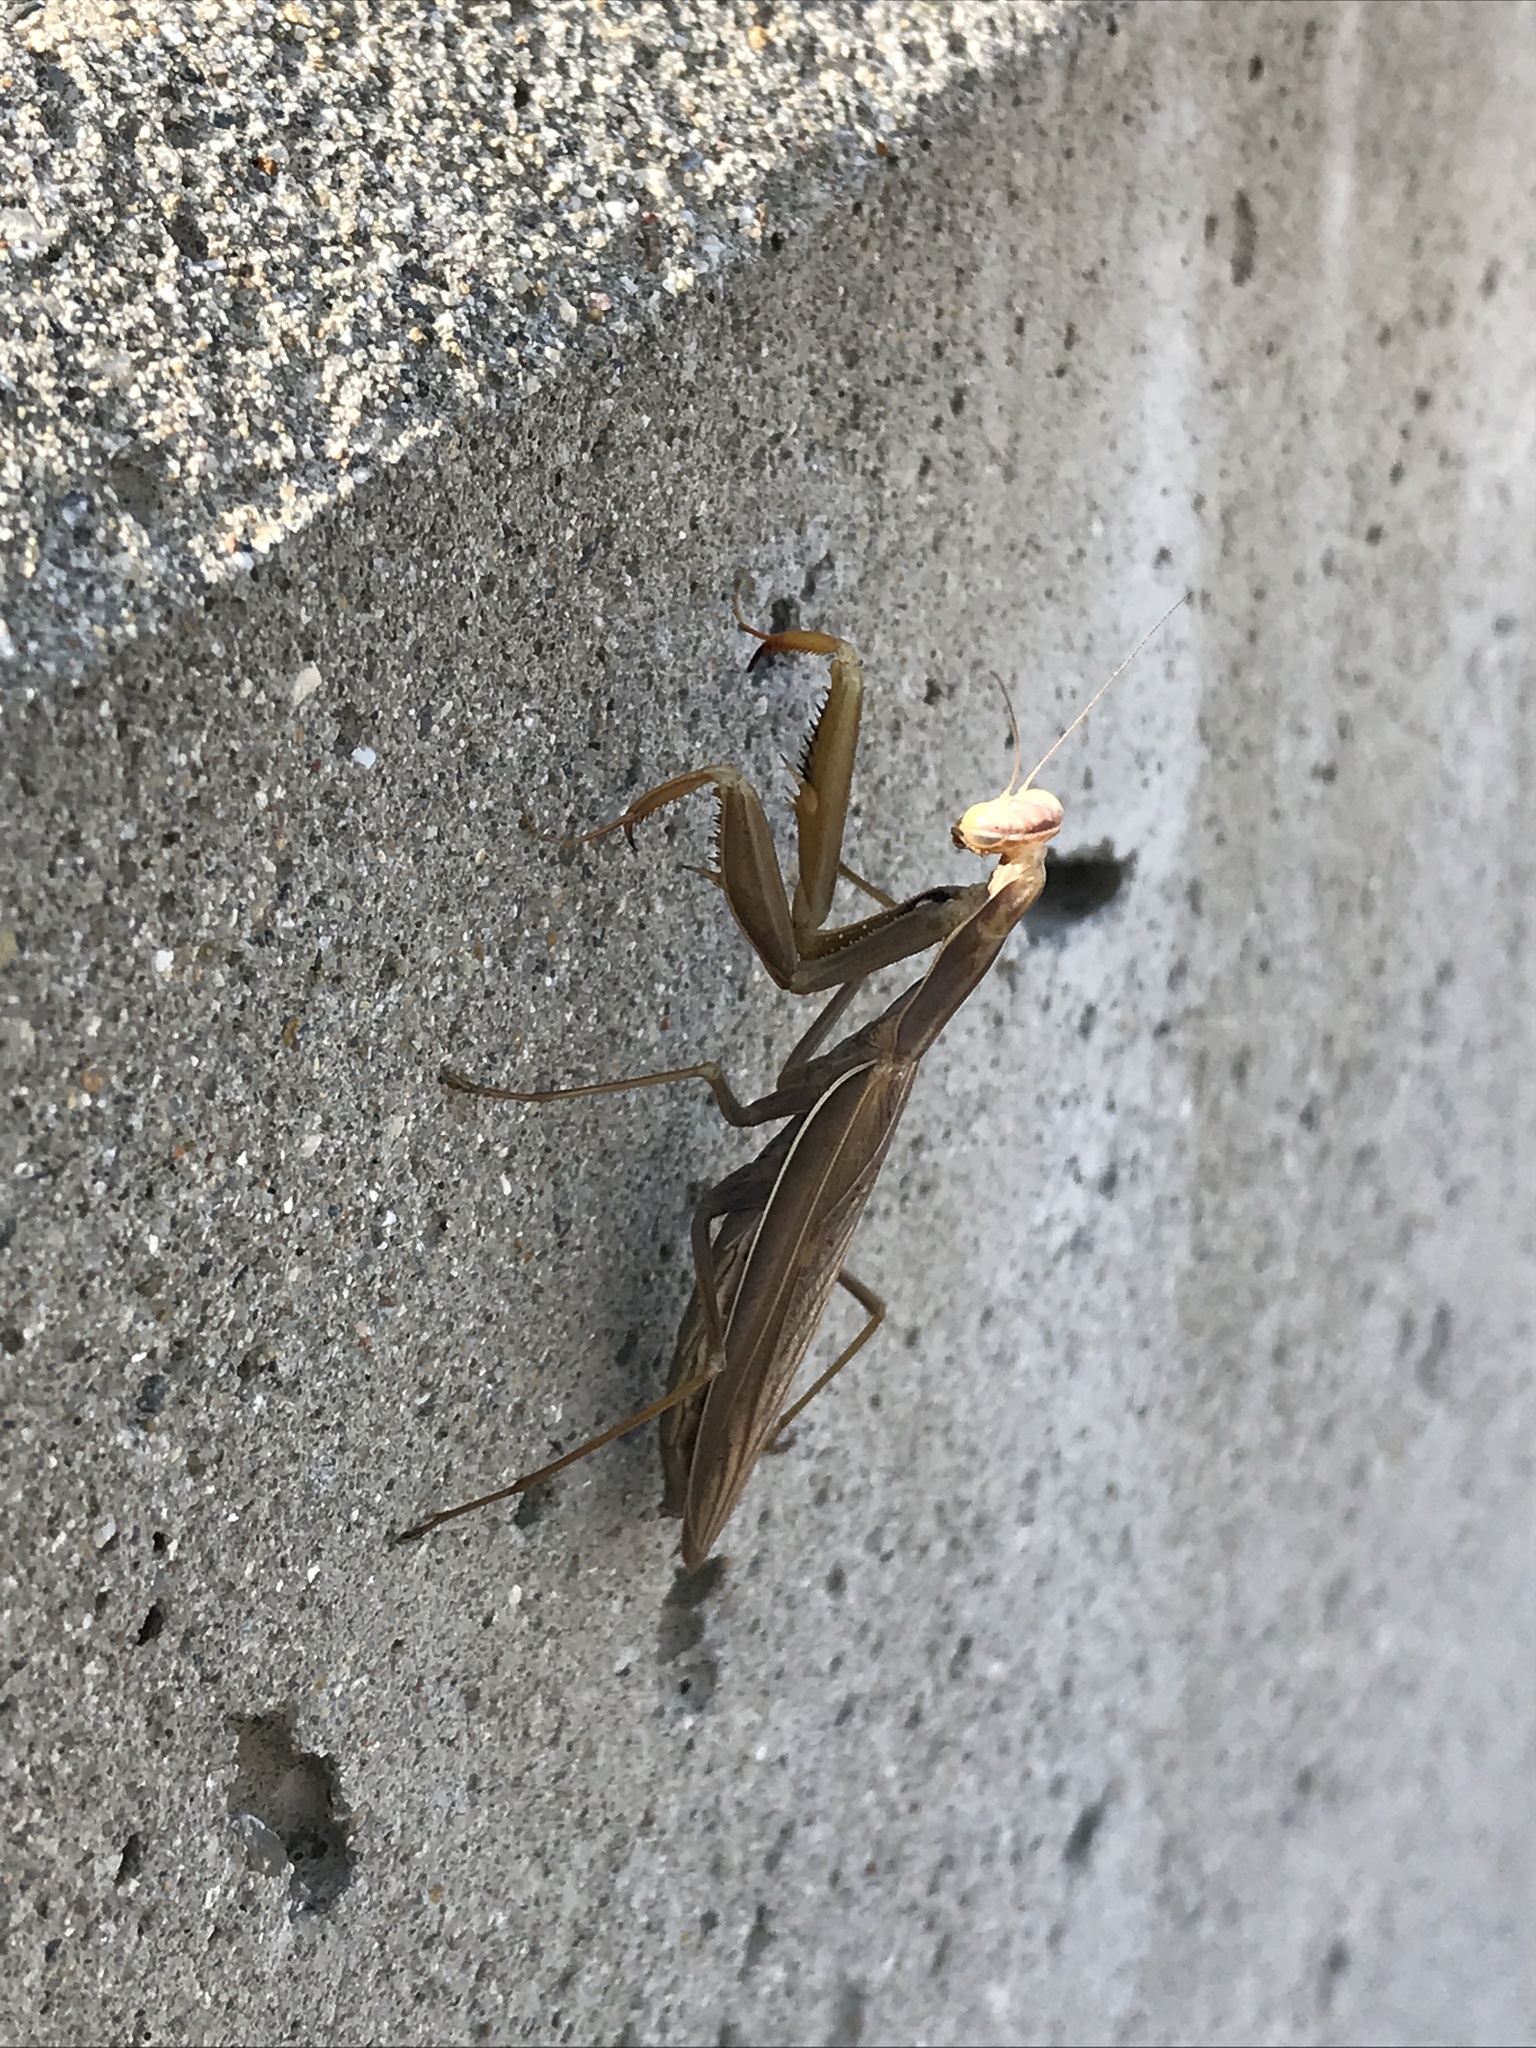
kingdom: Animalia
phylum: Arthropoda
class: Insecta
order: Mantodea
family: Mantidae
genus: Mantis
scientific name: Mantis religiosa
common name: Praying mantis
